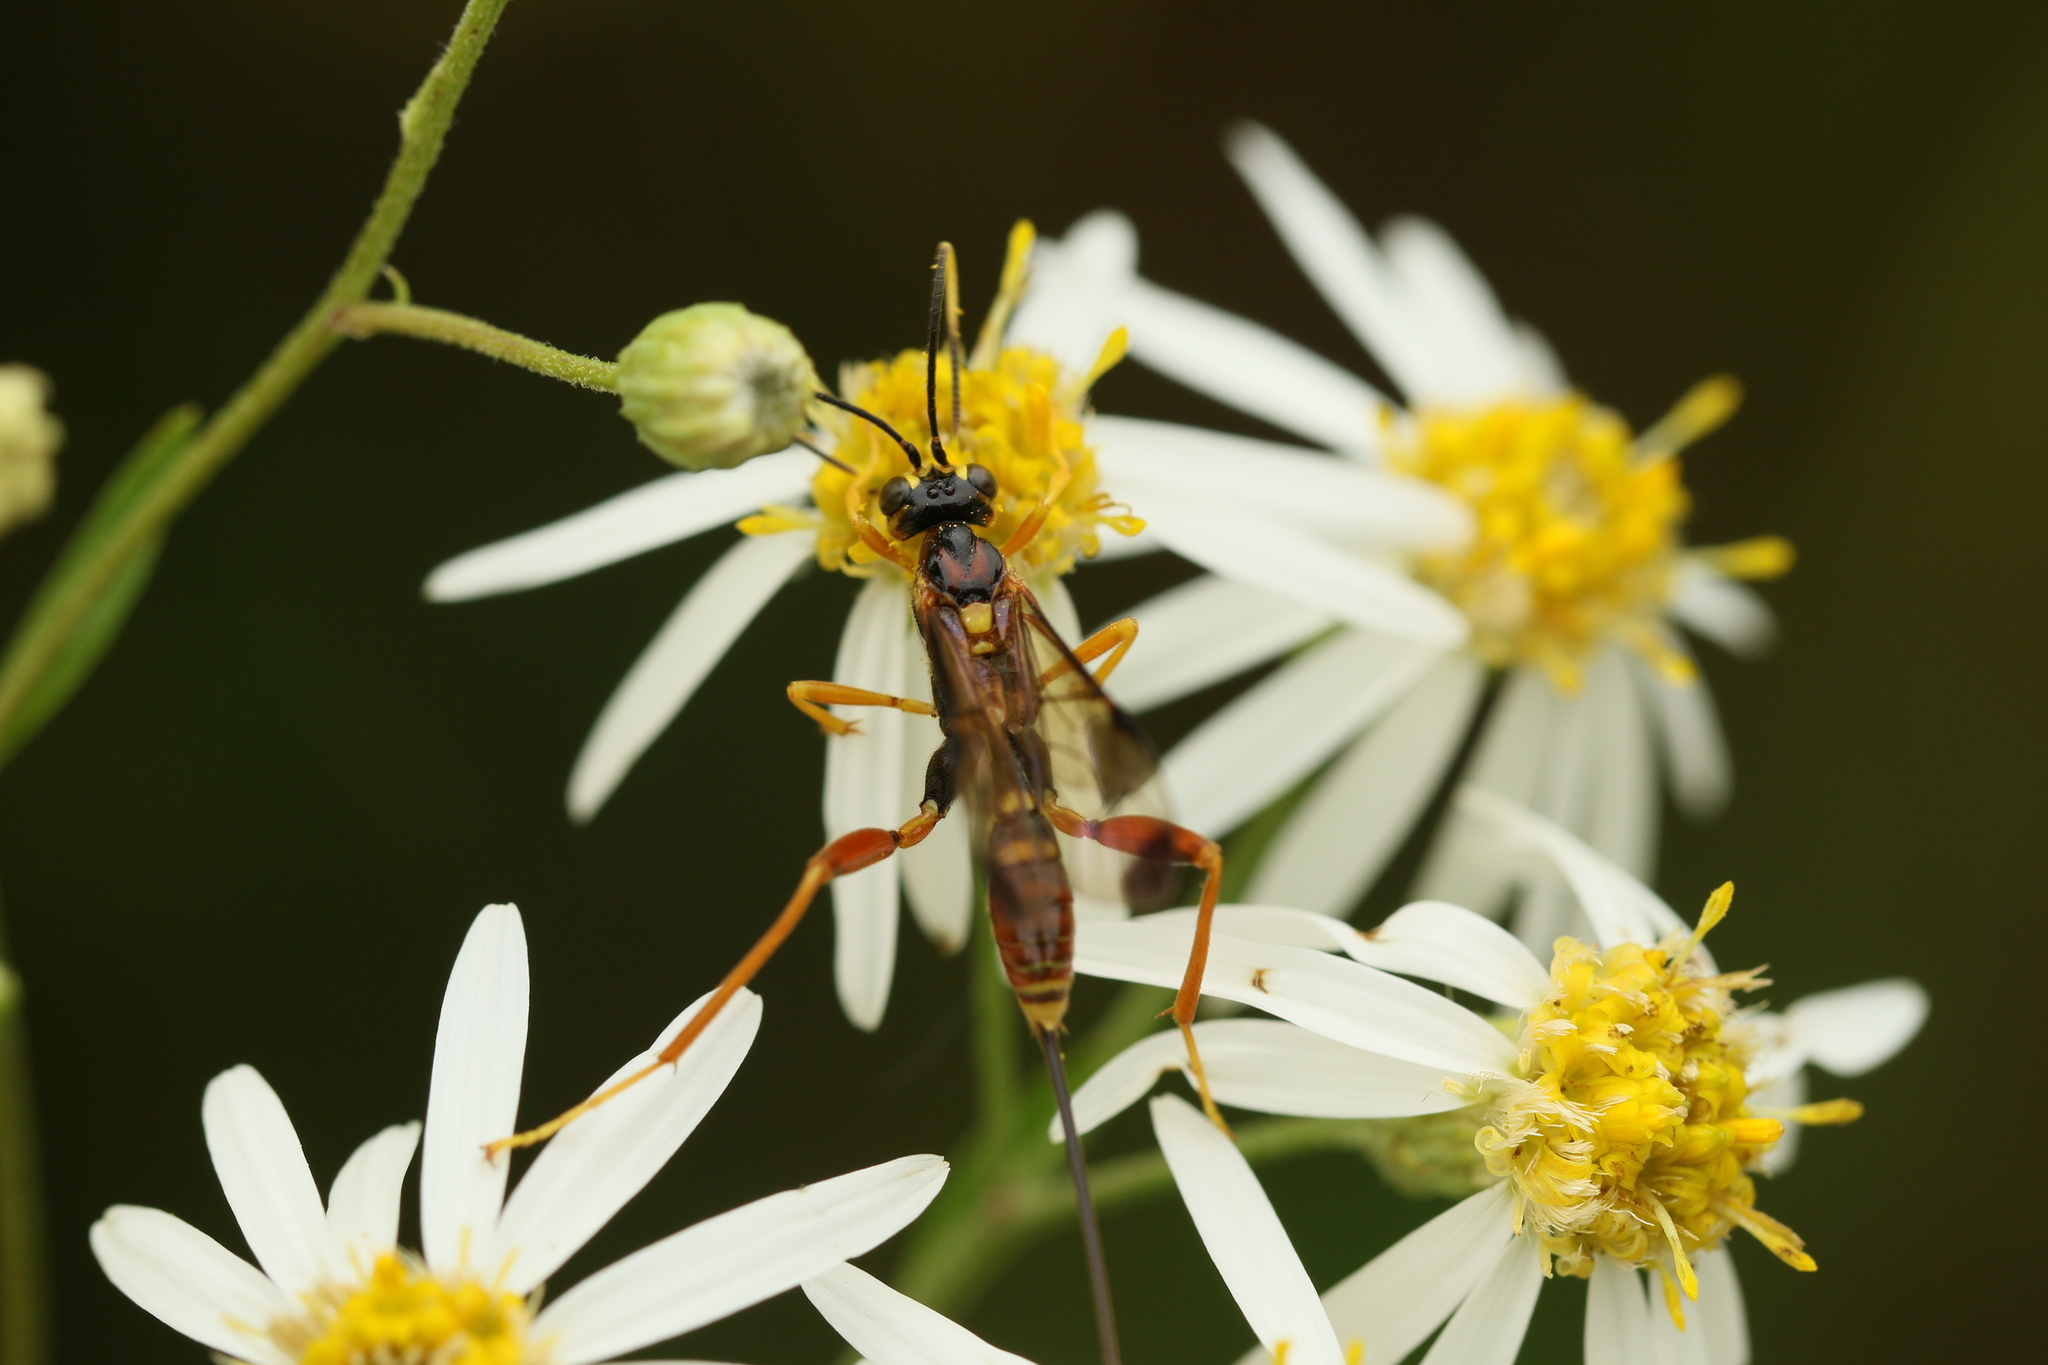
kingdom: Animalia
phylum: Arthropoda
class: Insecta
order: Hymenoptera
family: Ichneumonidae
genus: Spilopteron
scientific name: Spilopteron vicinum
